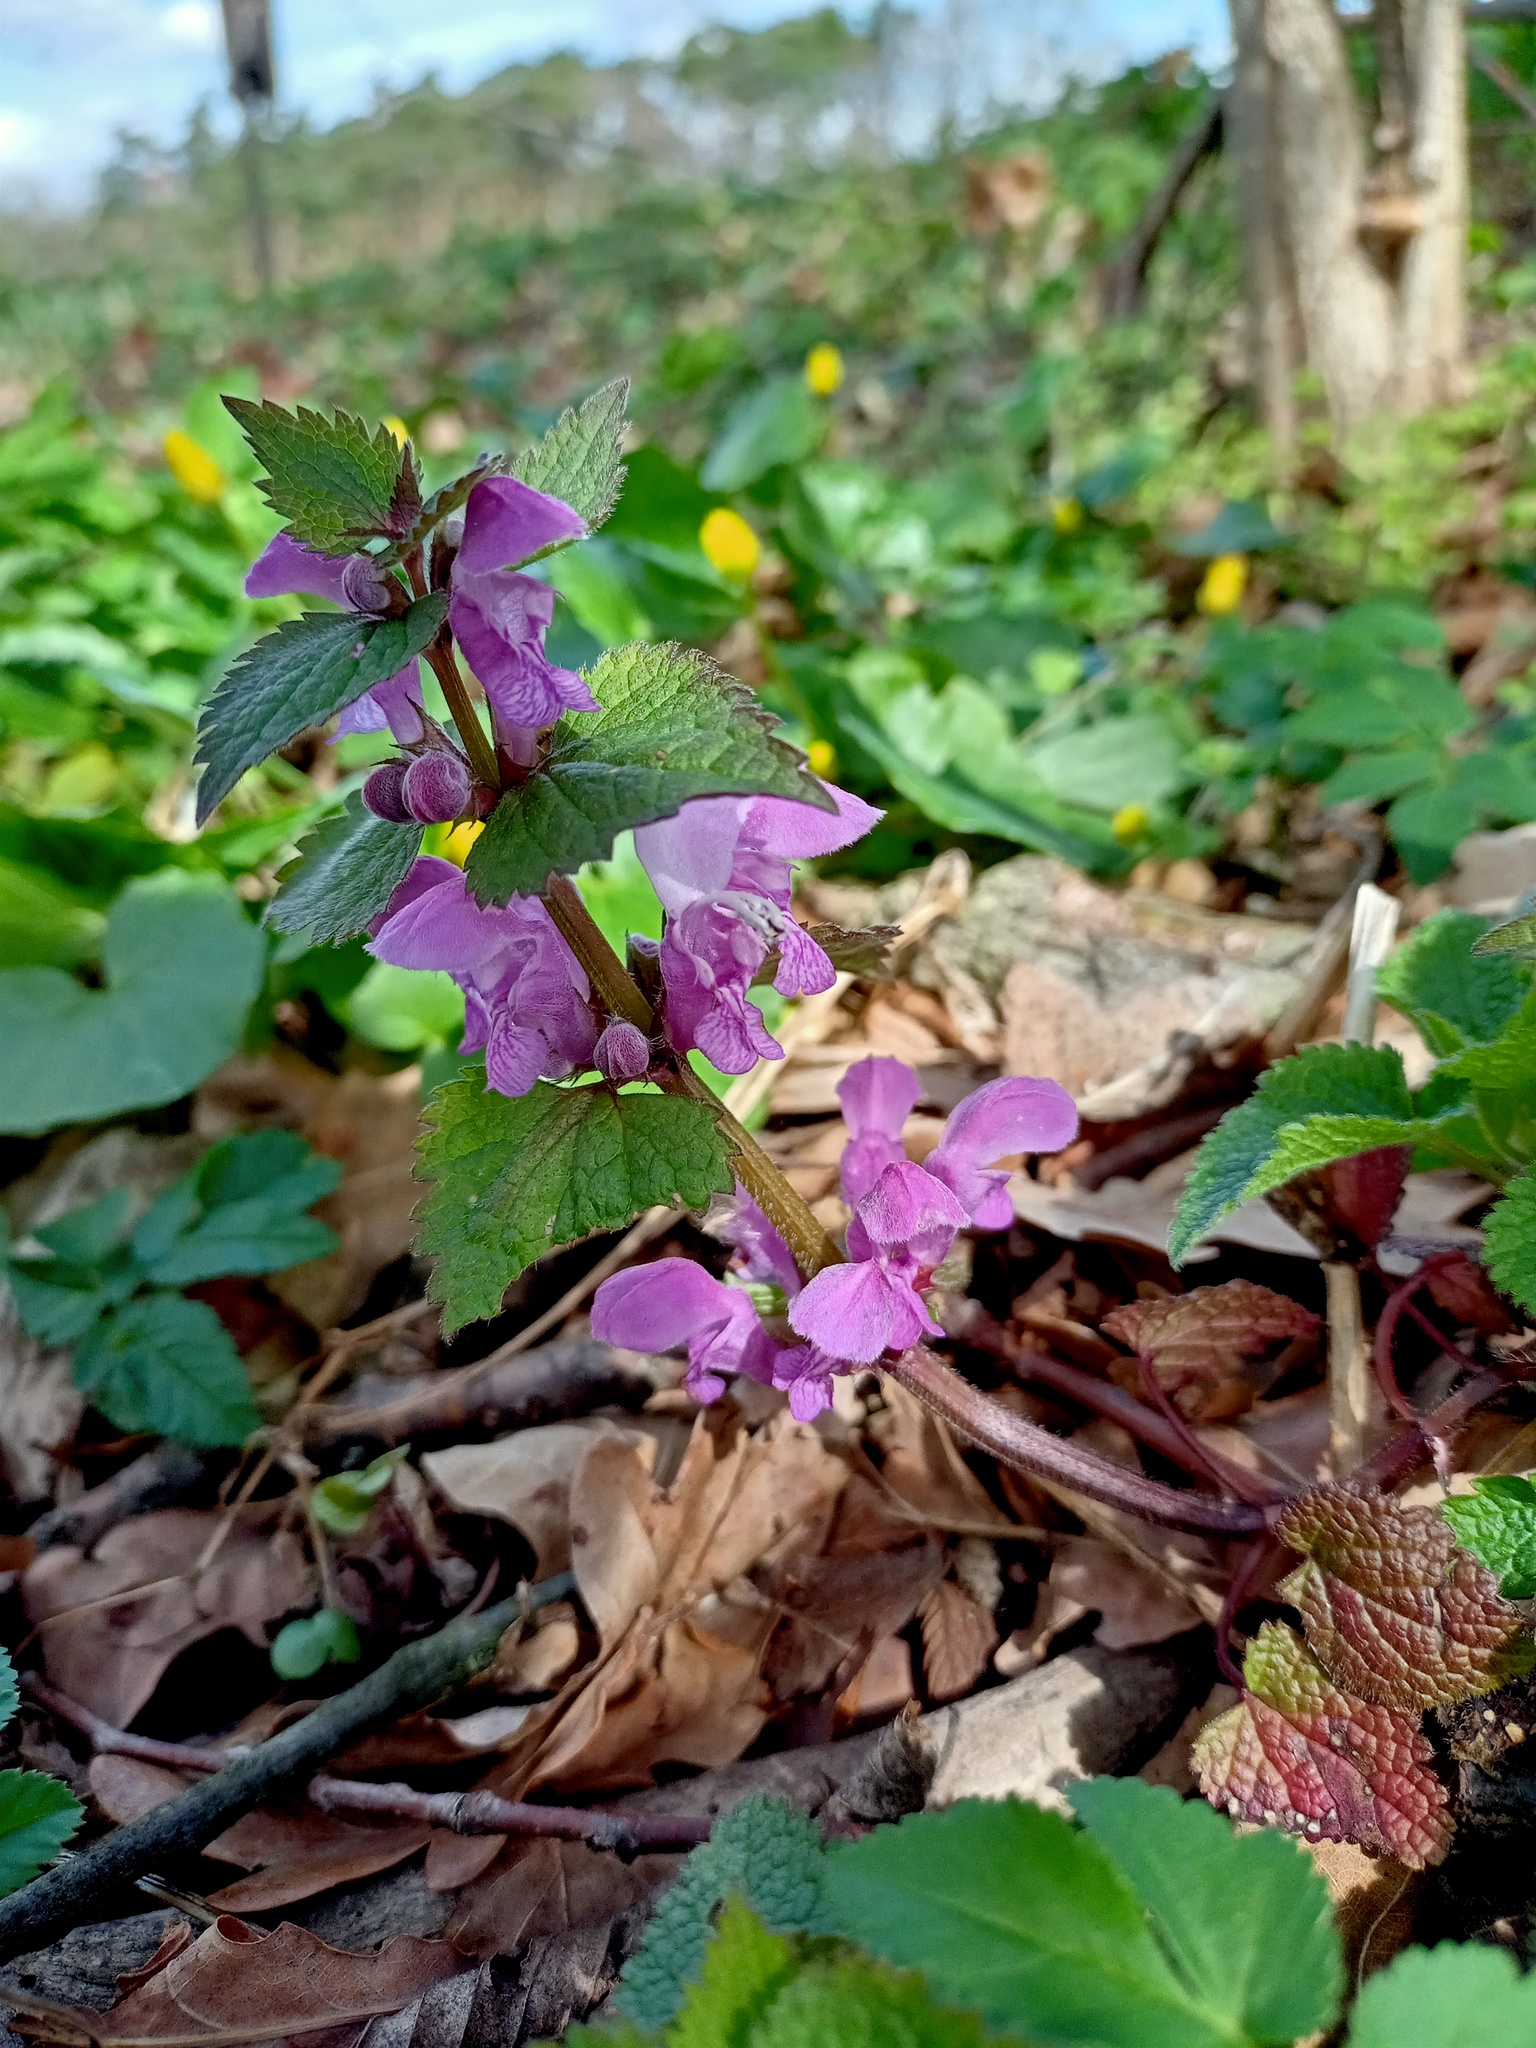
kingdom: Plantae
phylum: Tracheophyta
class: Magnoliopsida
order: Lamiales
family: Lamiaceae
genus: Lamium
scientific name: Lamium maculatum
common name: Spotted dead-nettle
